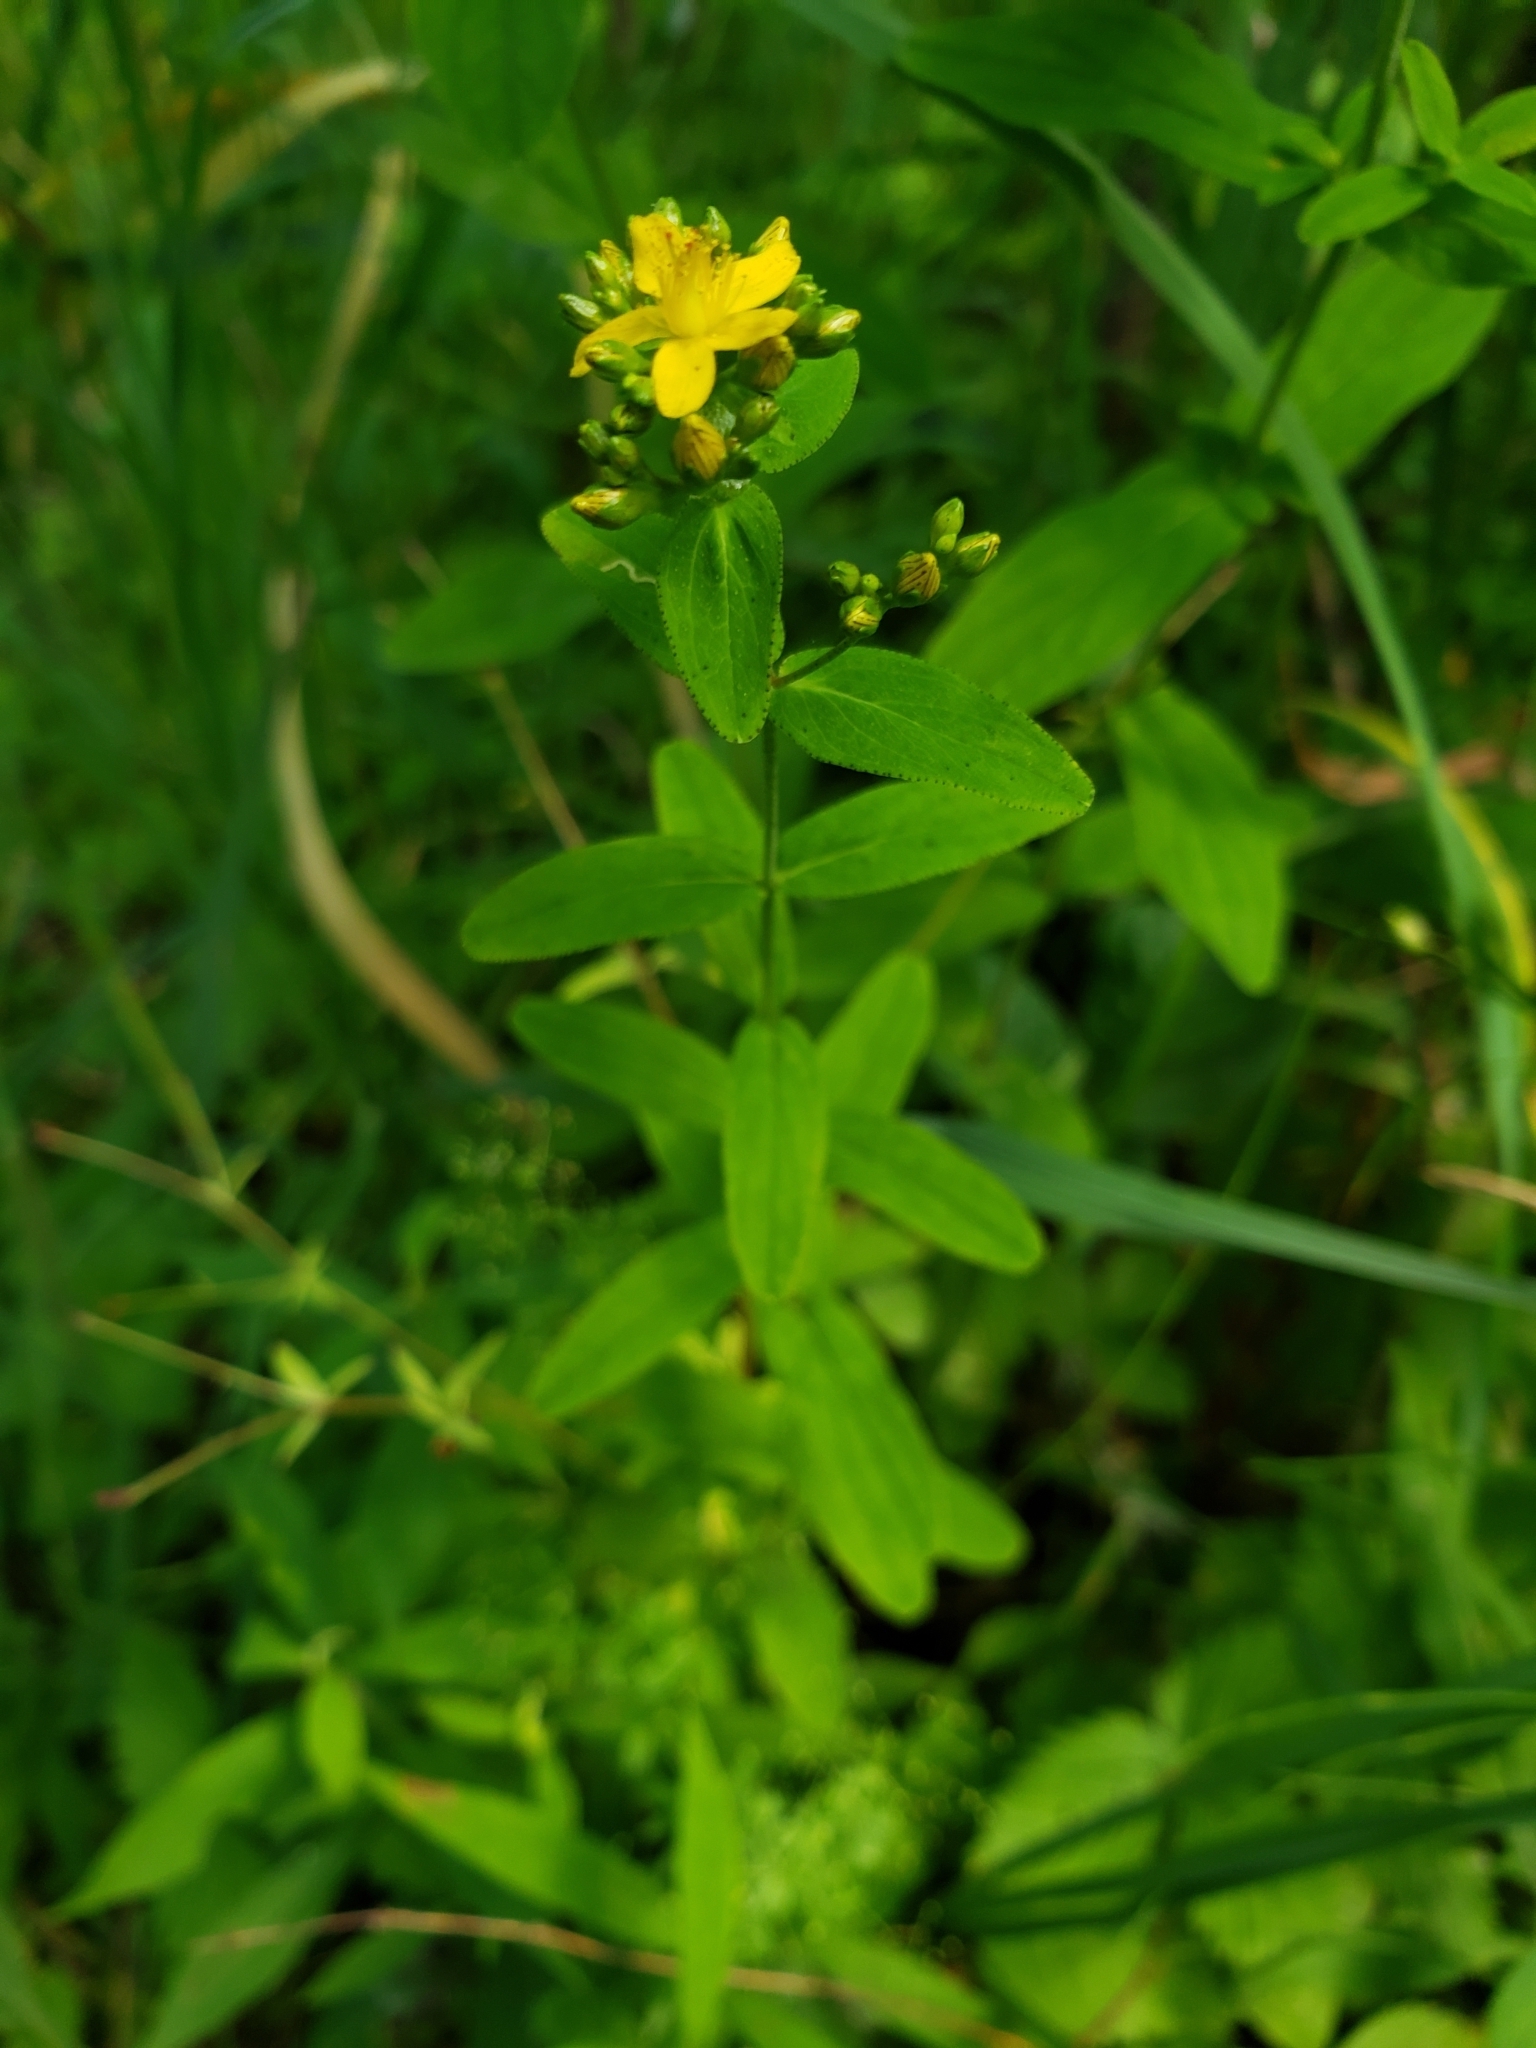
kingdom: Plantae
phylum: Tracheophyta
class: Magnoliopsida
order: Malpighiales
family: Hypericaceae
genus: Hypericum
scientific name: Hypericum punctatum
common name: Spotted st. john's-wort
